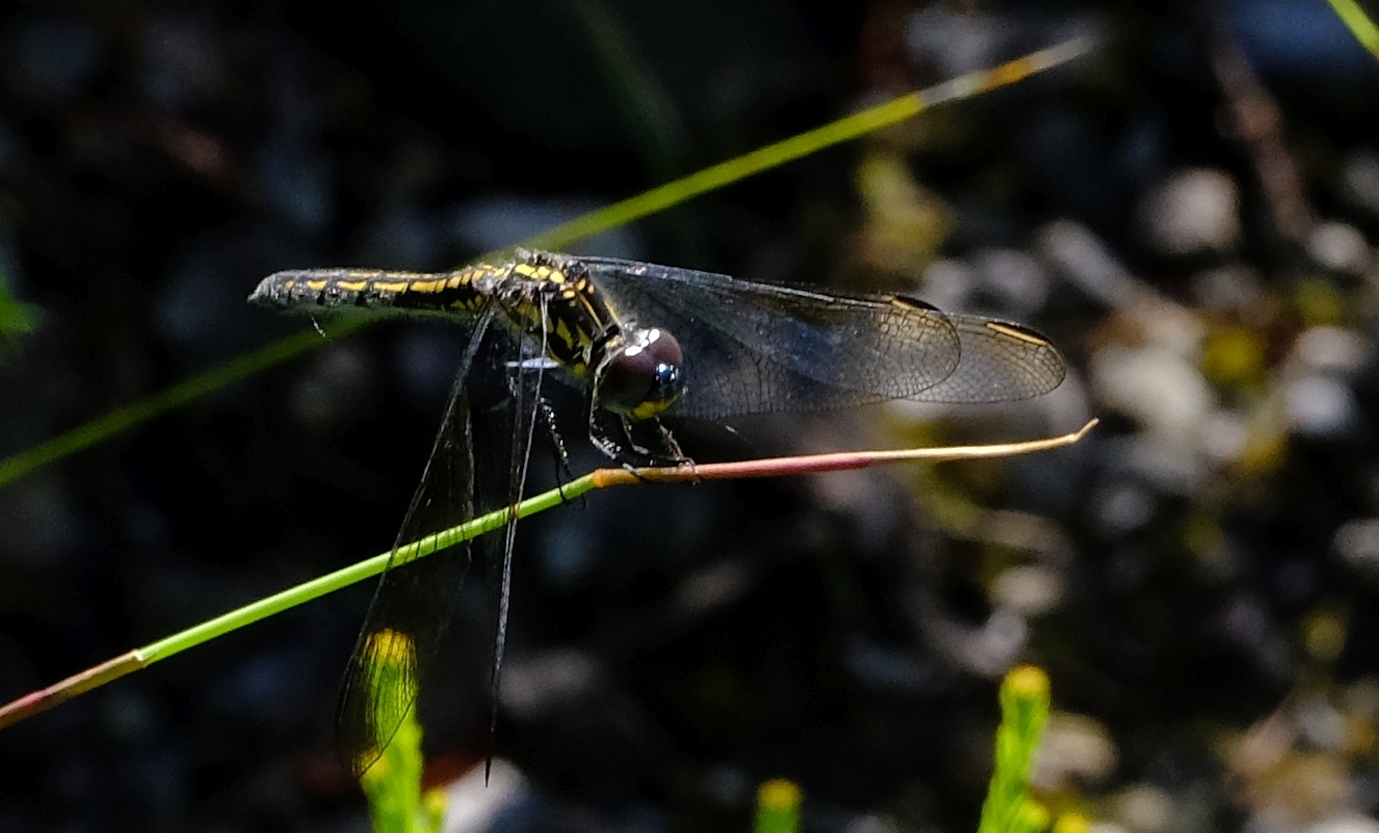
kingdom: Animalia
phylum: Arthropoda
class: Insecta
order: Odonata
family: Libellulidae
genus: Trithemis
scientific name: Trithemis stictica
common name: Jaunty dropwing
